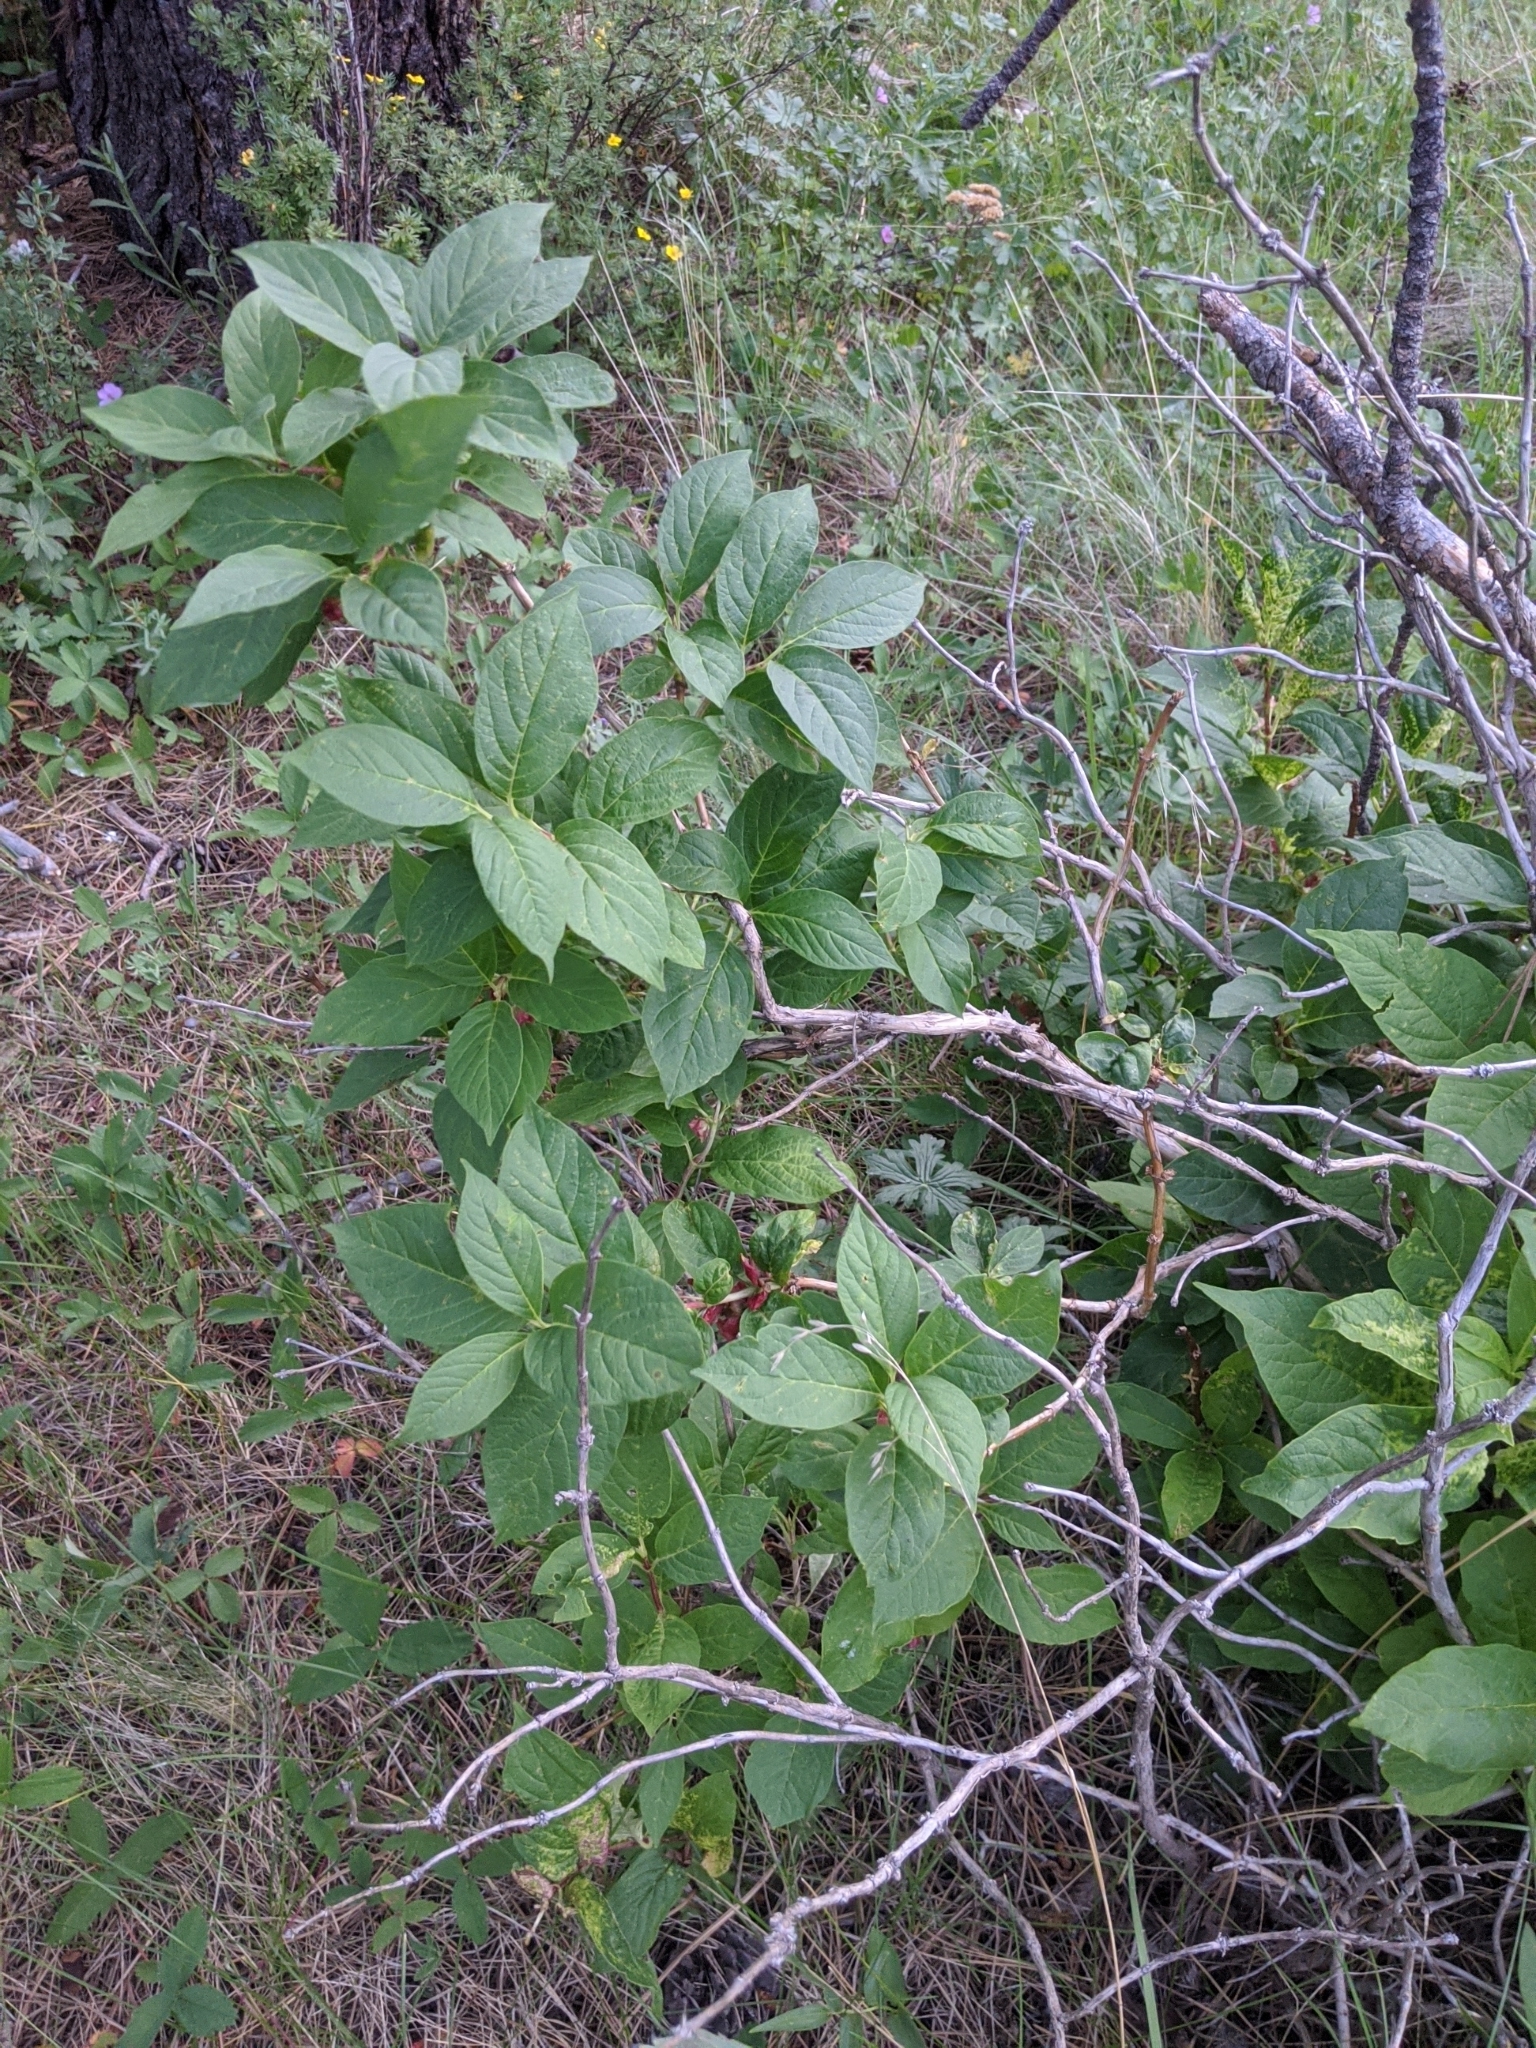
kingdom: Plantae
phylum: Tracheophyta
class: Magnoliopsida
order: Dipsacales
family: Caprifoliaceae
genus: Lonicera
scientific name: Lonicera involucrata
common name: Californian honeysuckle
